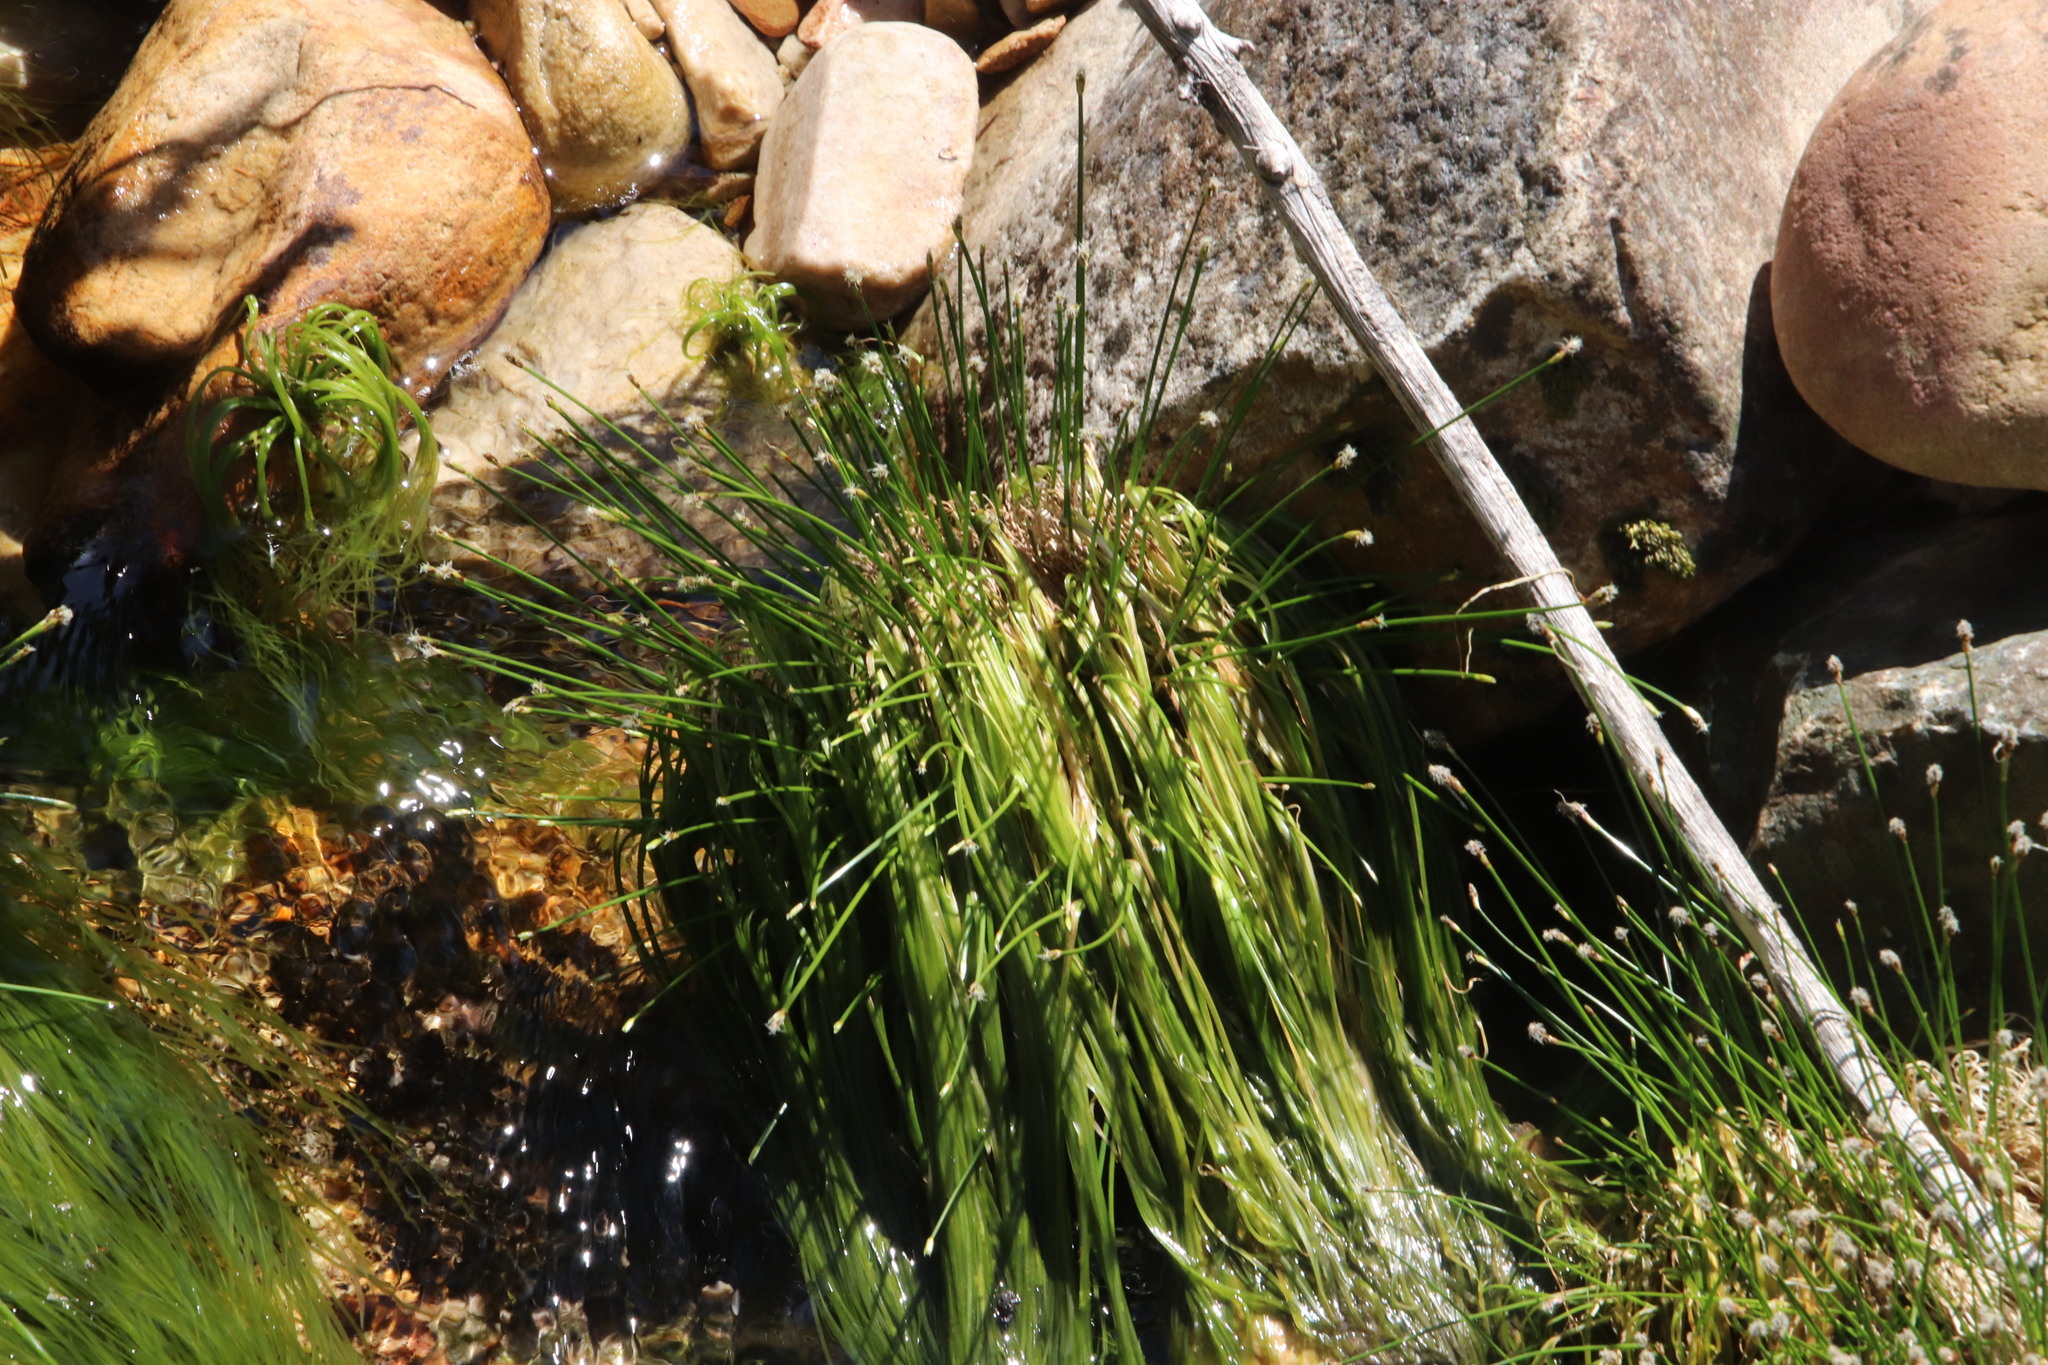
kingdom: Plantae
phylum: Tracheophyta
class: Liliopsida
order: Poales
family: Cyperaceae
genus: Isolepis
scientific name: Isolepis digitata
